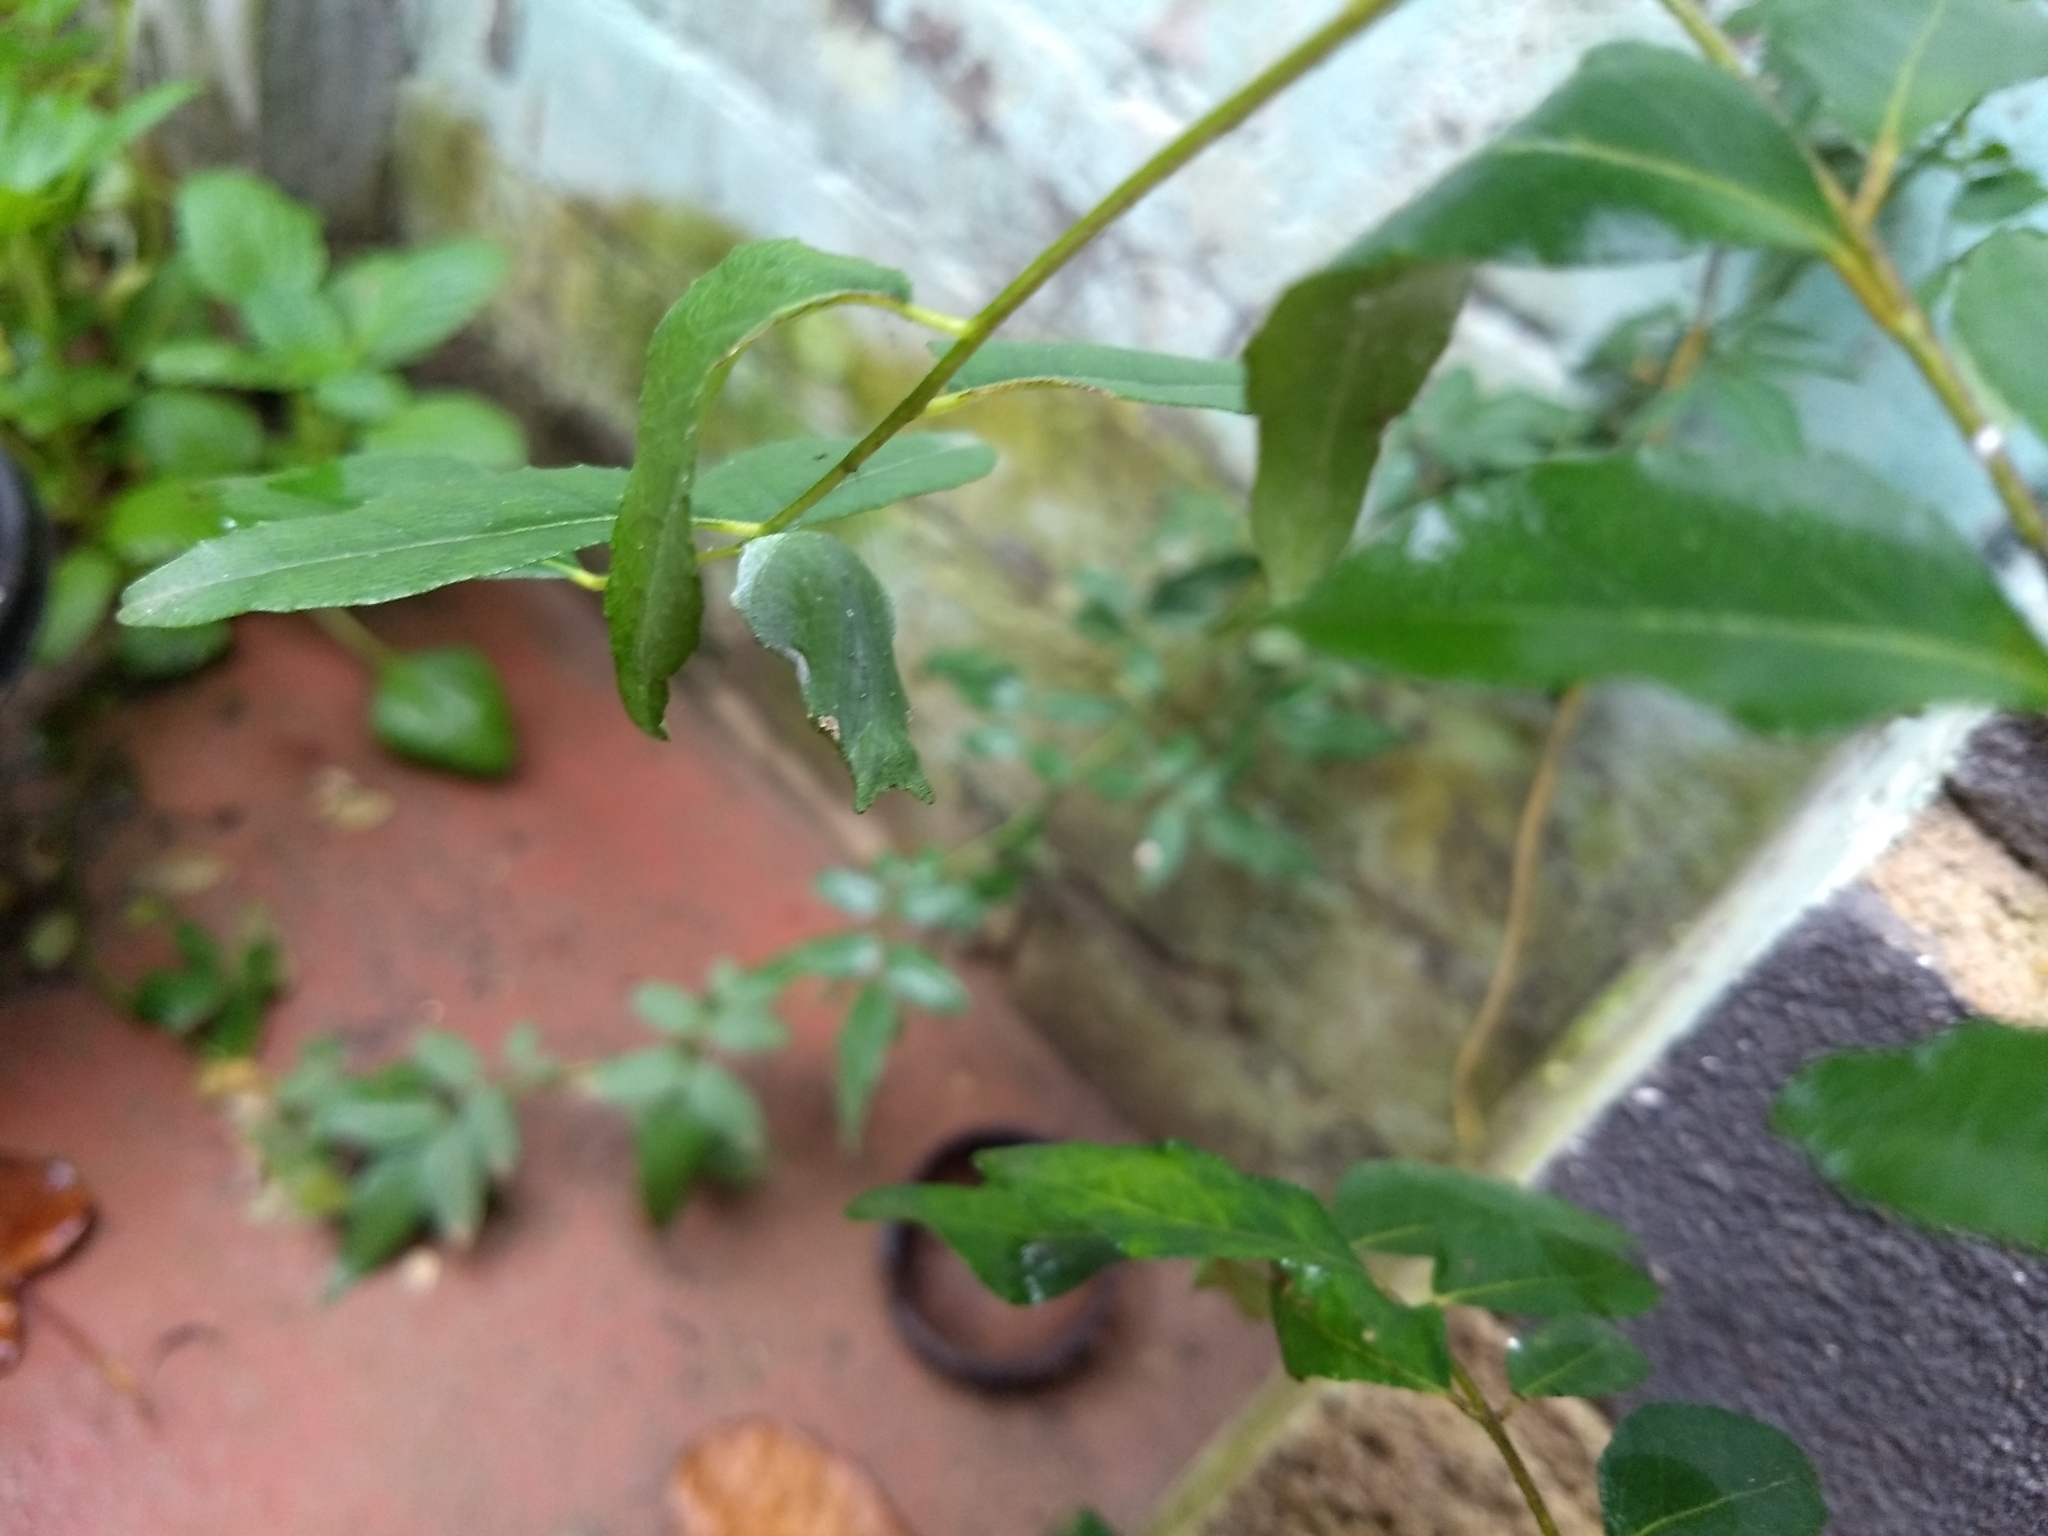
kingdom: Animalia
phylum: Arthropoda
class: Insecta
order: Lepidoptera
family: Papilionidae
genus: Papilio
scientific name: Papilio polytes
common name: Common mormon
